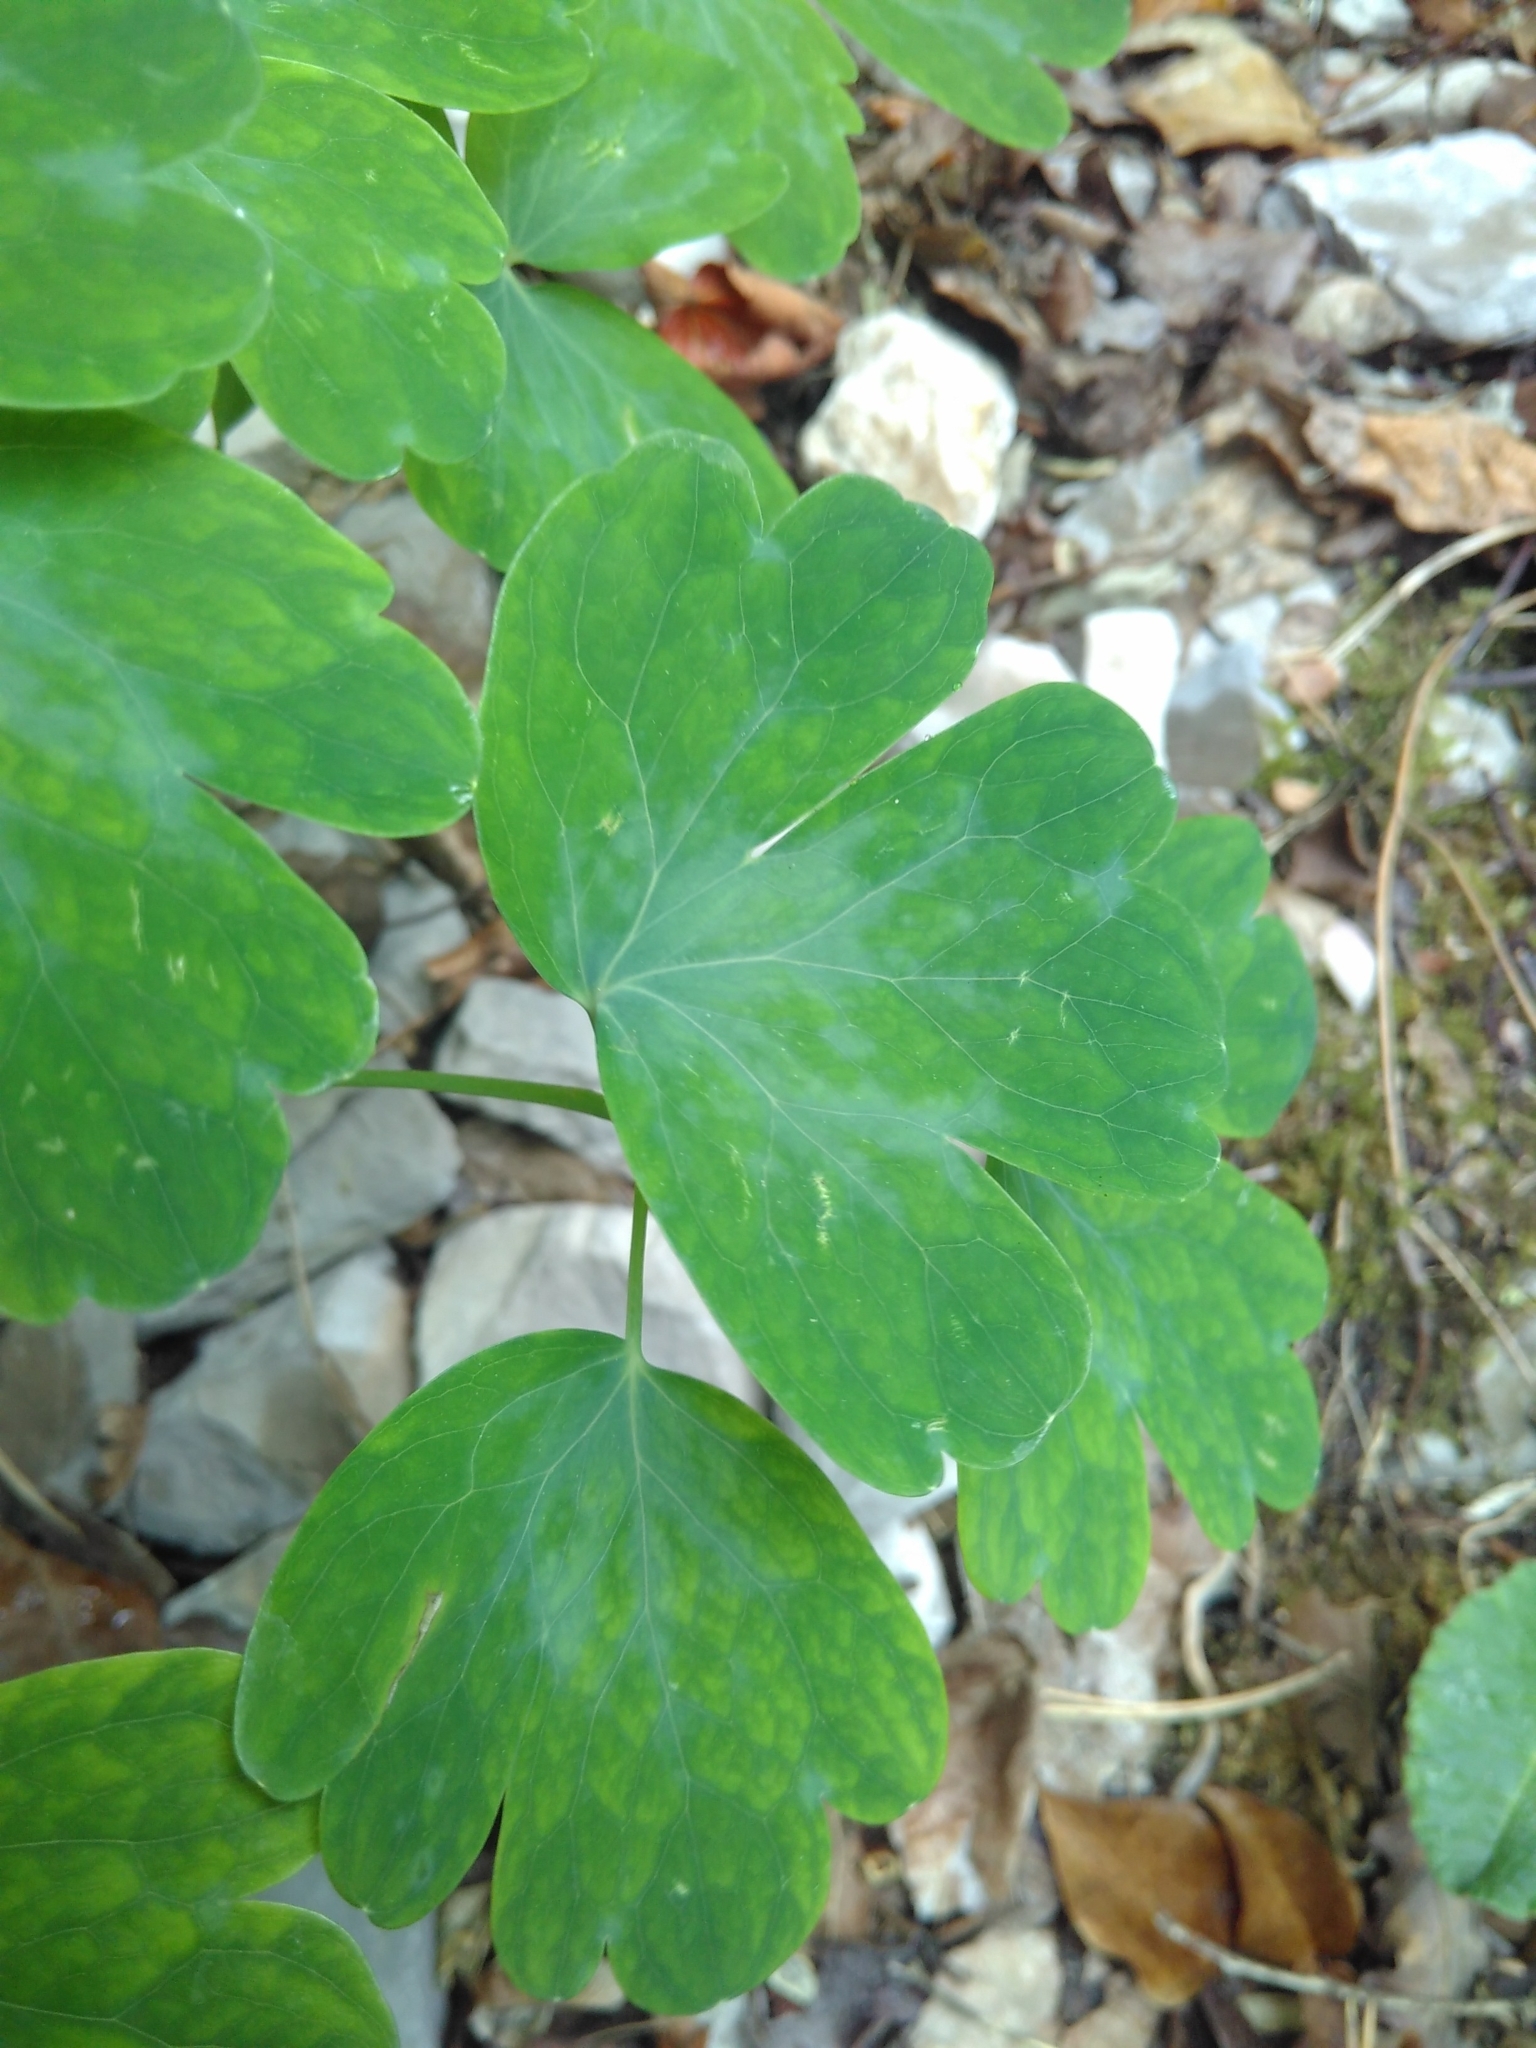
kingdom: Plantae
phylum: Tracheophyta
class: Magnoliopsida
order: Ranunculales
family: Ranunculaceae
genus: Aquilegia
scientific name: Aquilegia vulgaris
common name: Columbine
